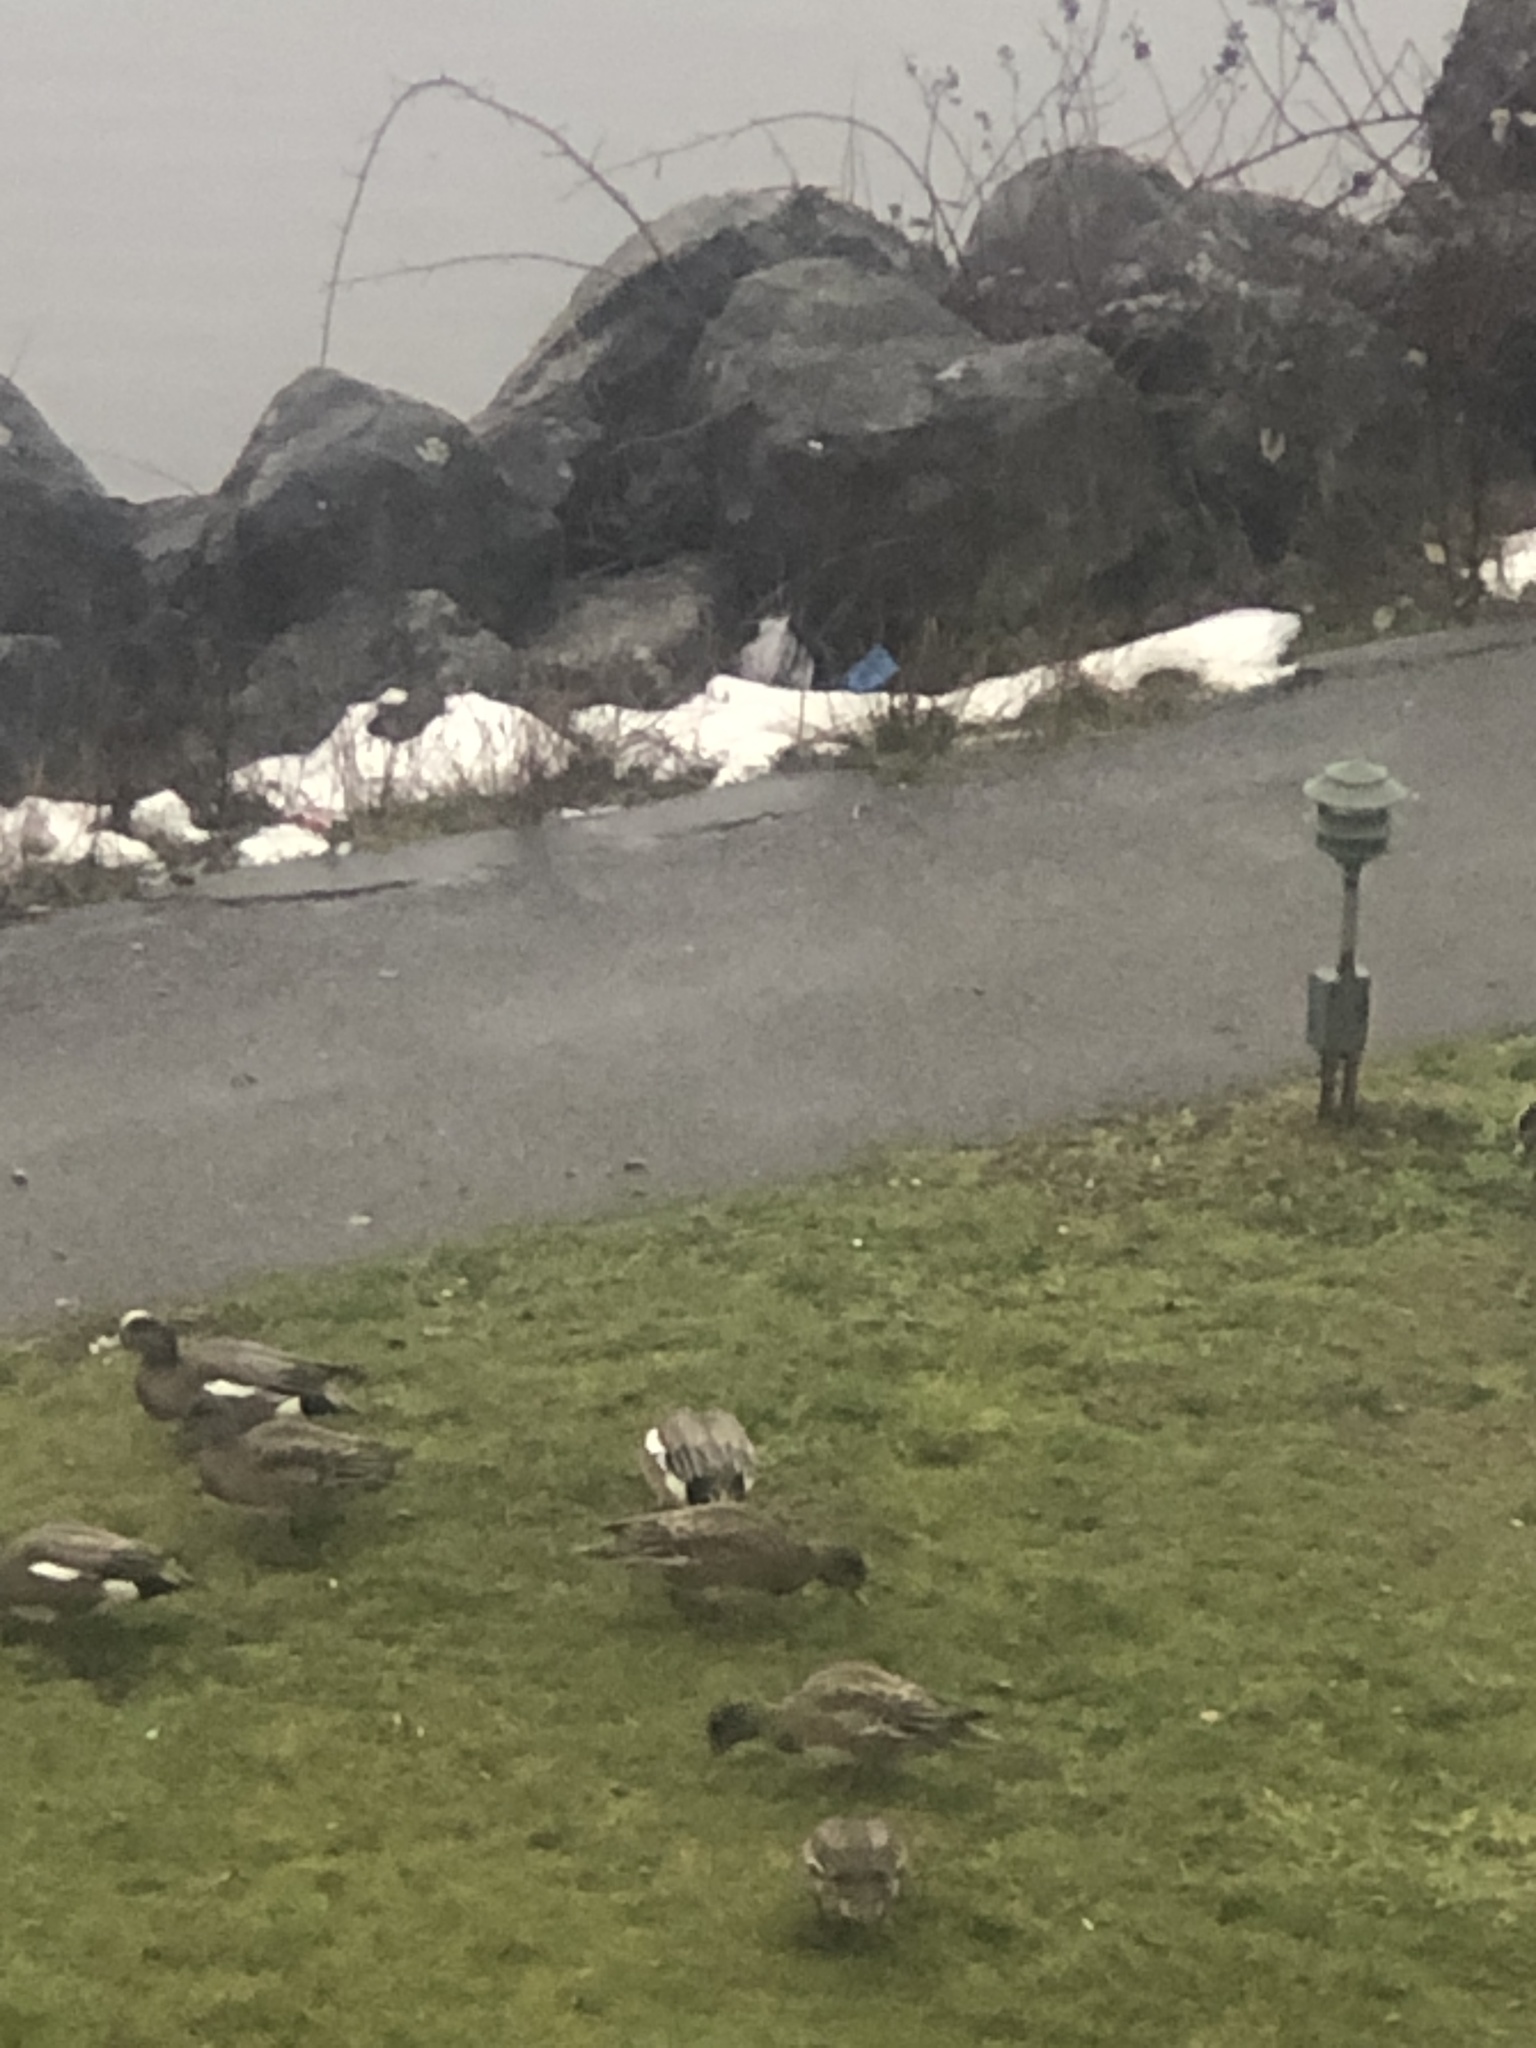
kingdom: Animalia
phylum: Chordata
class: Aves
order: Anseriformes
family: Anatidae
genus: Mareca
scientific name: Mareca americana
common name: American wigeon
